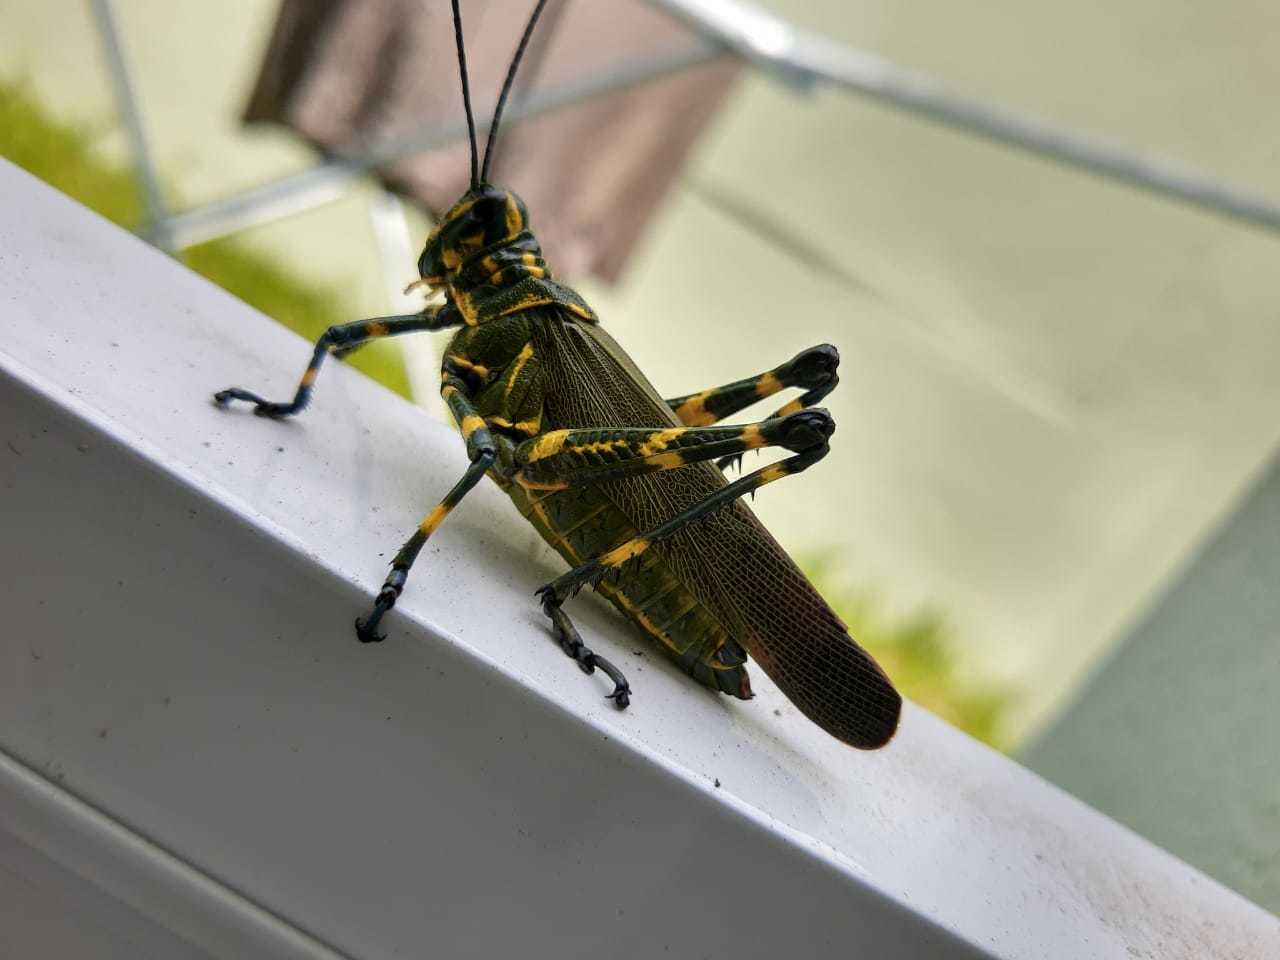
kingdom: Animalia
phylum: Arthropoda
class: Insecta
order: Orthoptera
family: Romaleidae
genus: Chromacris
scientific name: Chromacris speciosa
